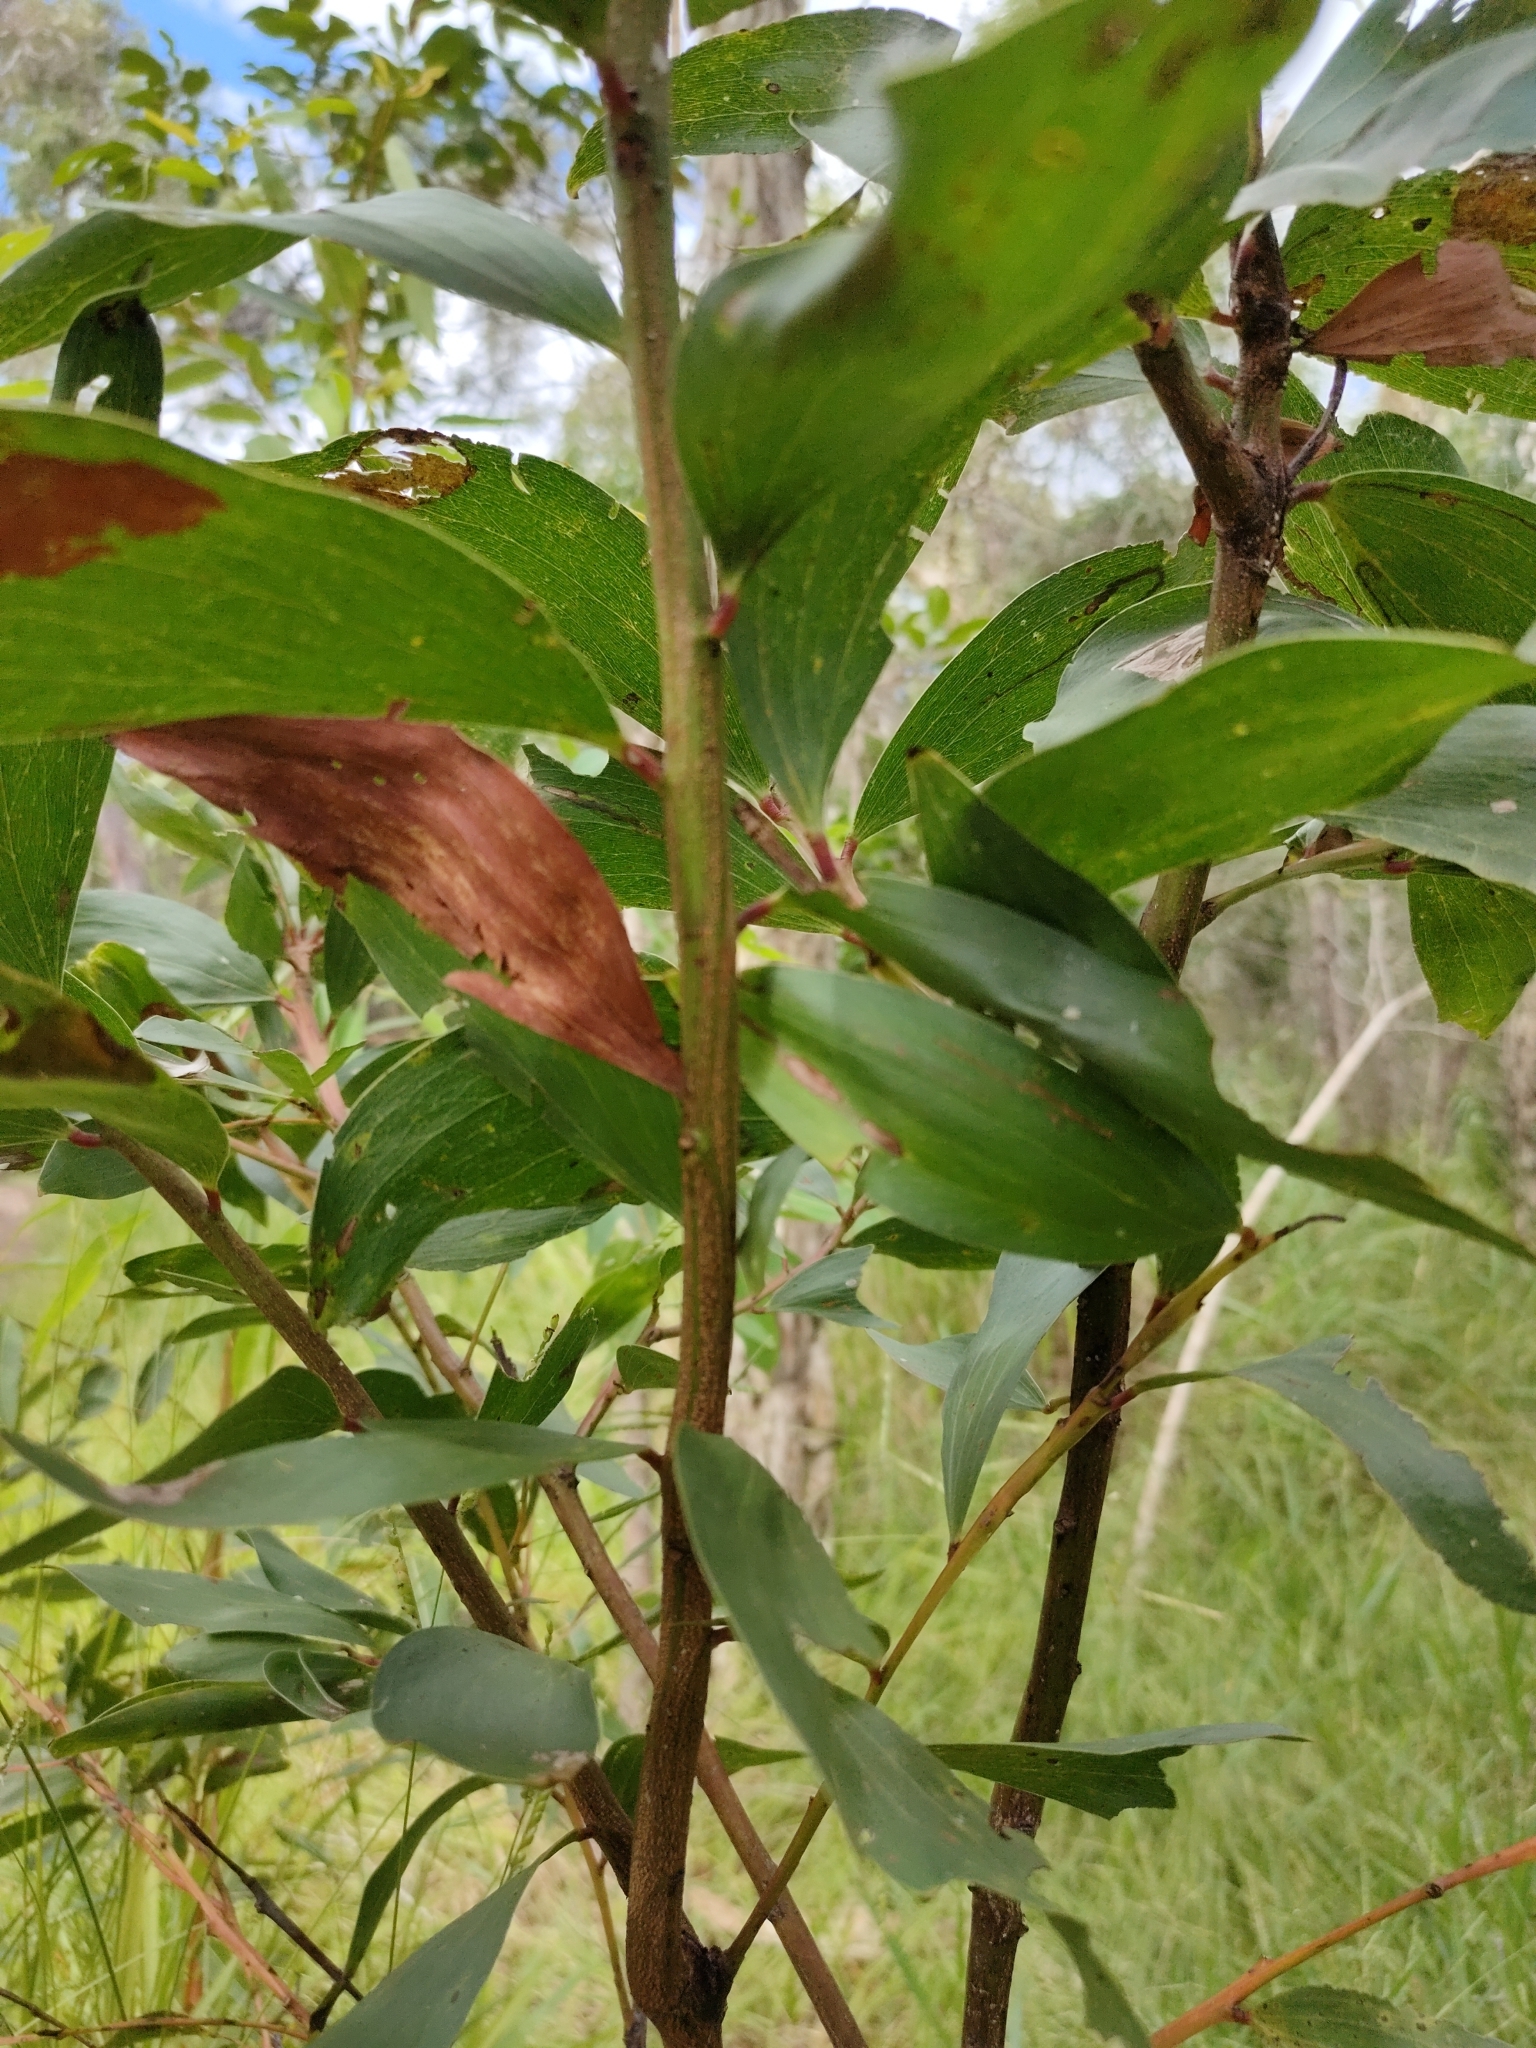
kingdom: Plantae
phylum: Tracheophyta
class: Magnoliopsida
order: Fabales
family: Fabaceae
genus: Acacia
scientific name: Acacia leiocalyx
